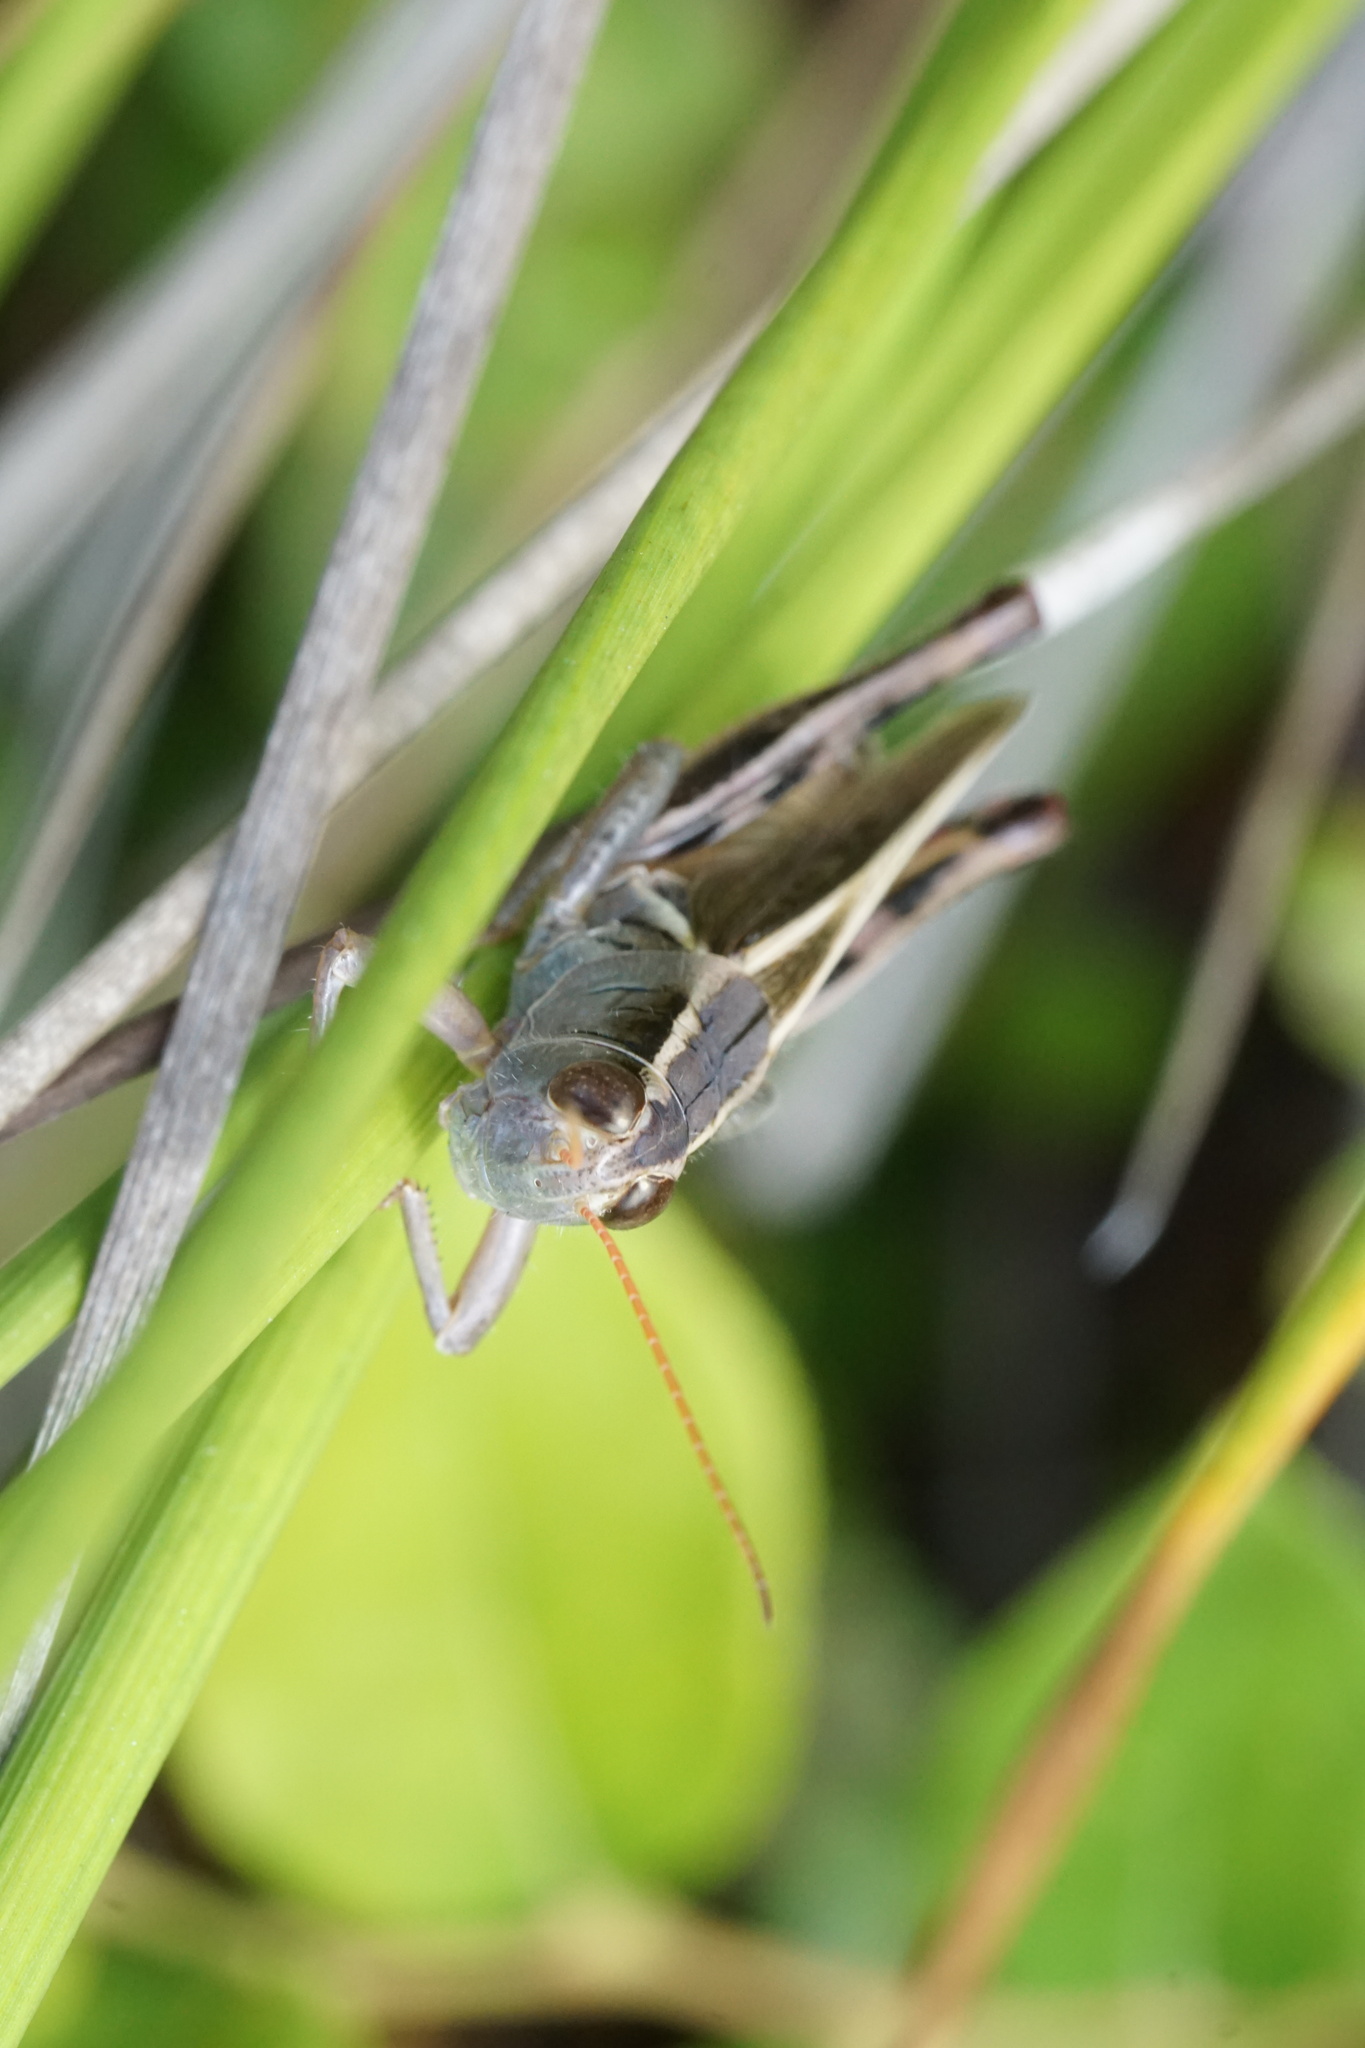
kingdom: Animalia
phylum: Arthropoda
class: Insecta
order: Orthoptera
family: Acrididae
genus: Melanoplus
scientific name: Melanoplus bivittatus
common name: Two-striped grasshopper
